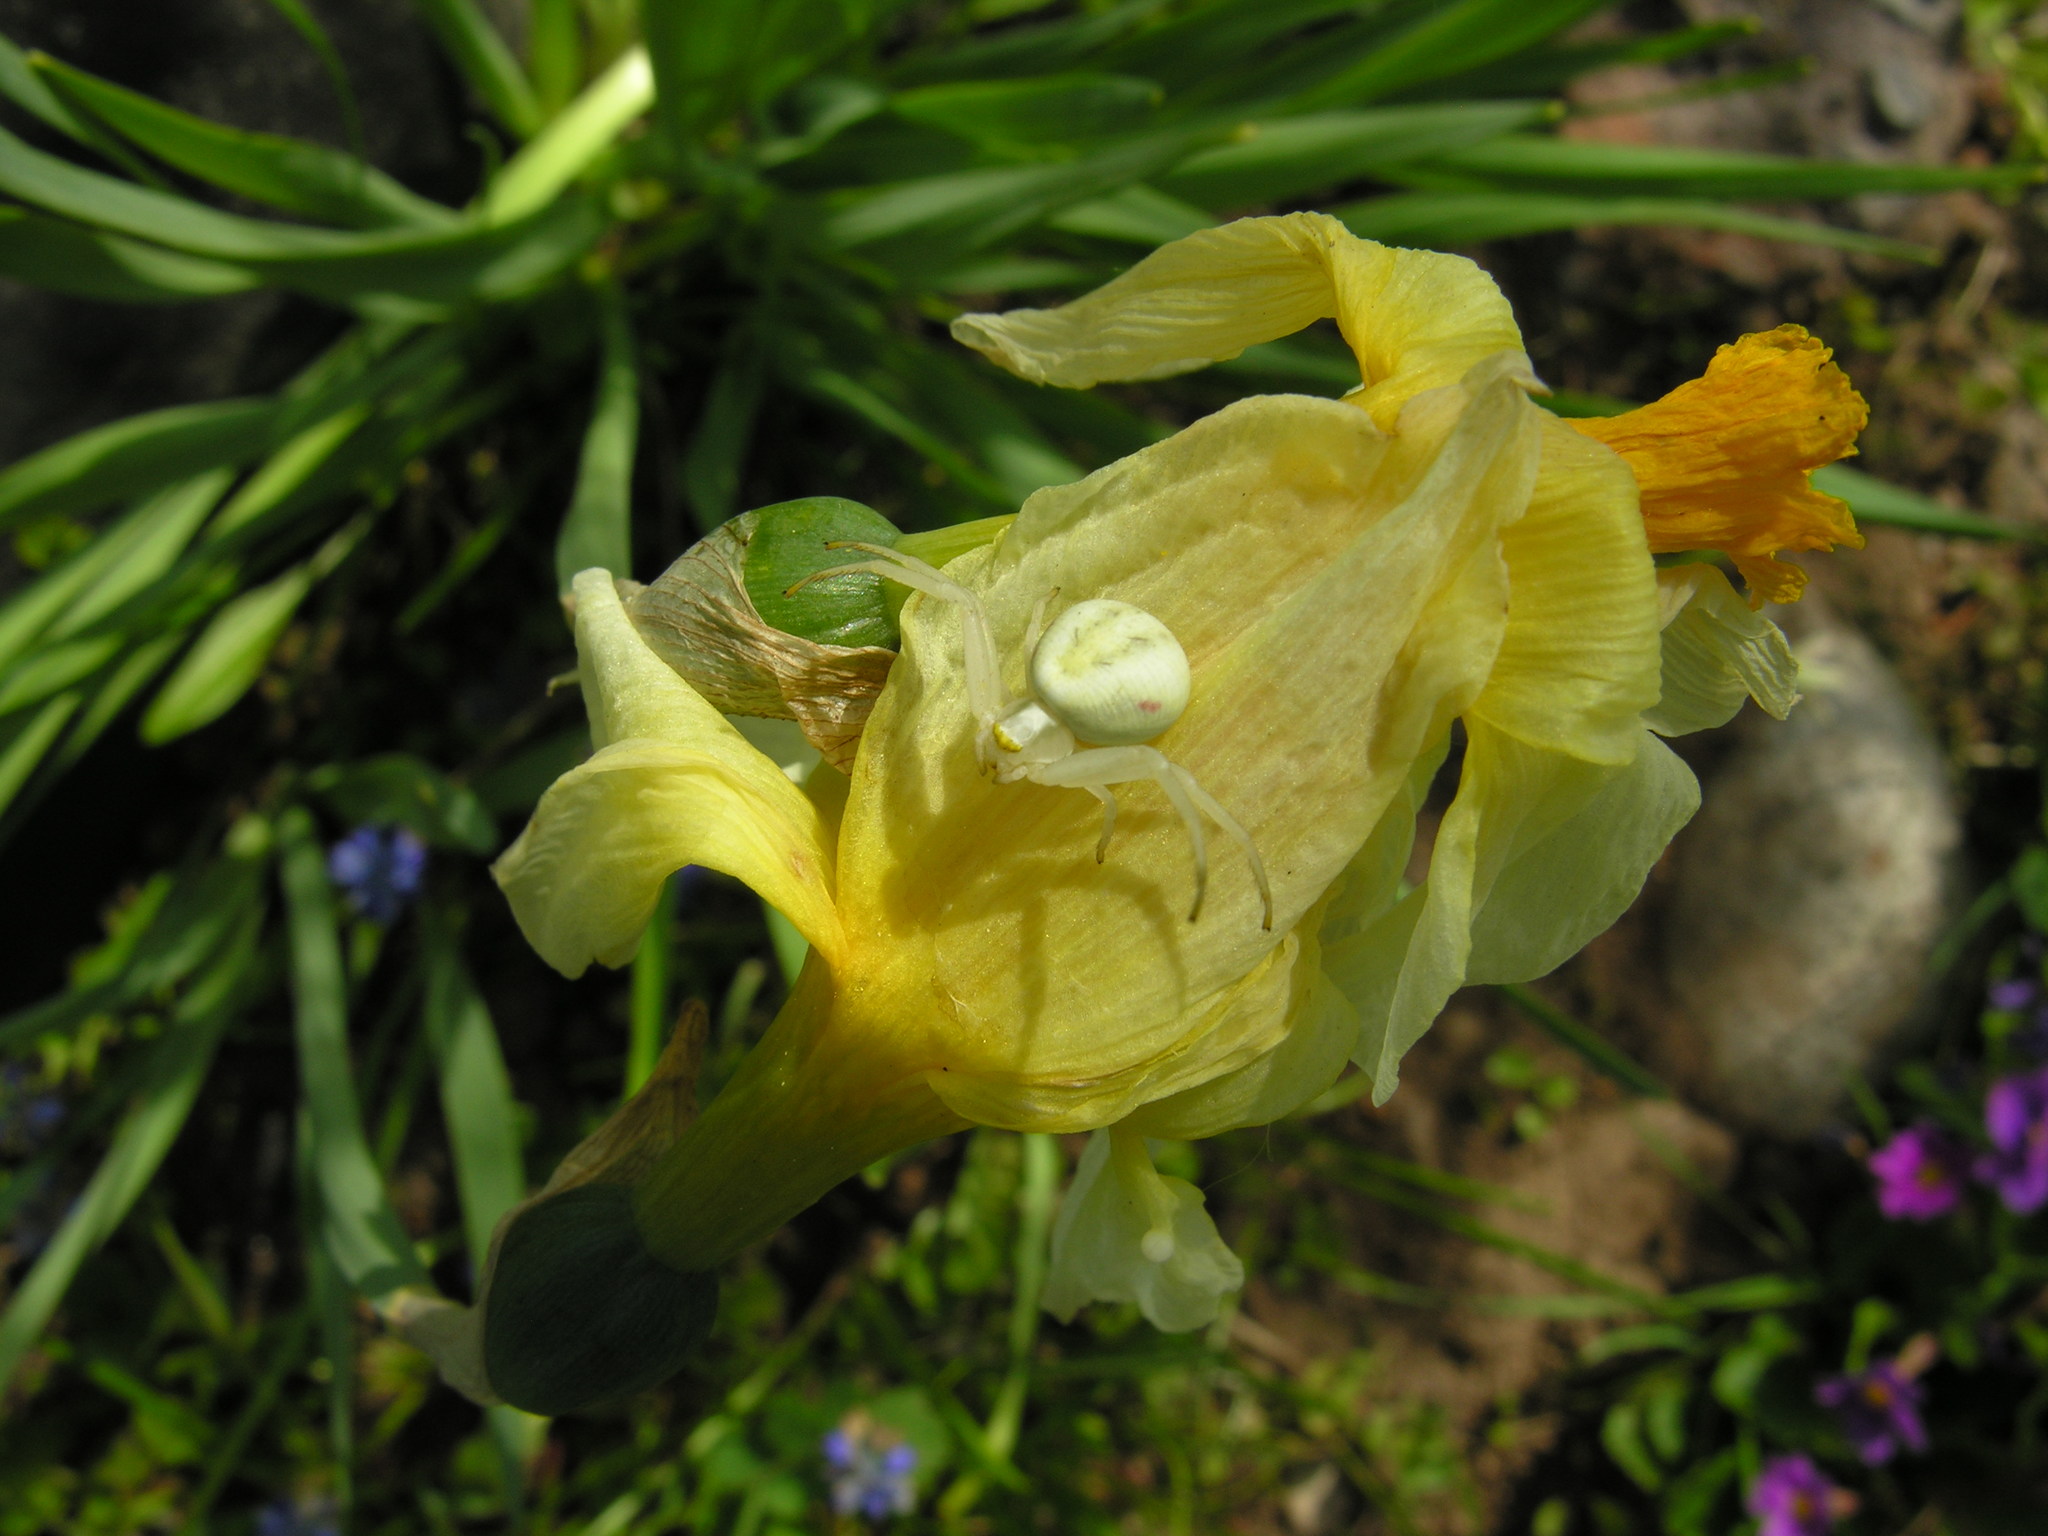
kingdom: Animalia
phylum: Arthropoda
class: Arachnida
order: Araneae
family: Thomisidae
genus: Misumena
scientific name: Misumena vatia
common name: Goldenrod crab spider
